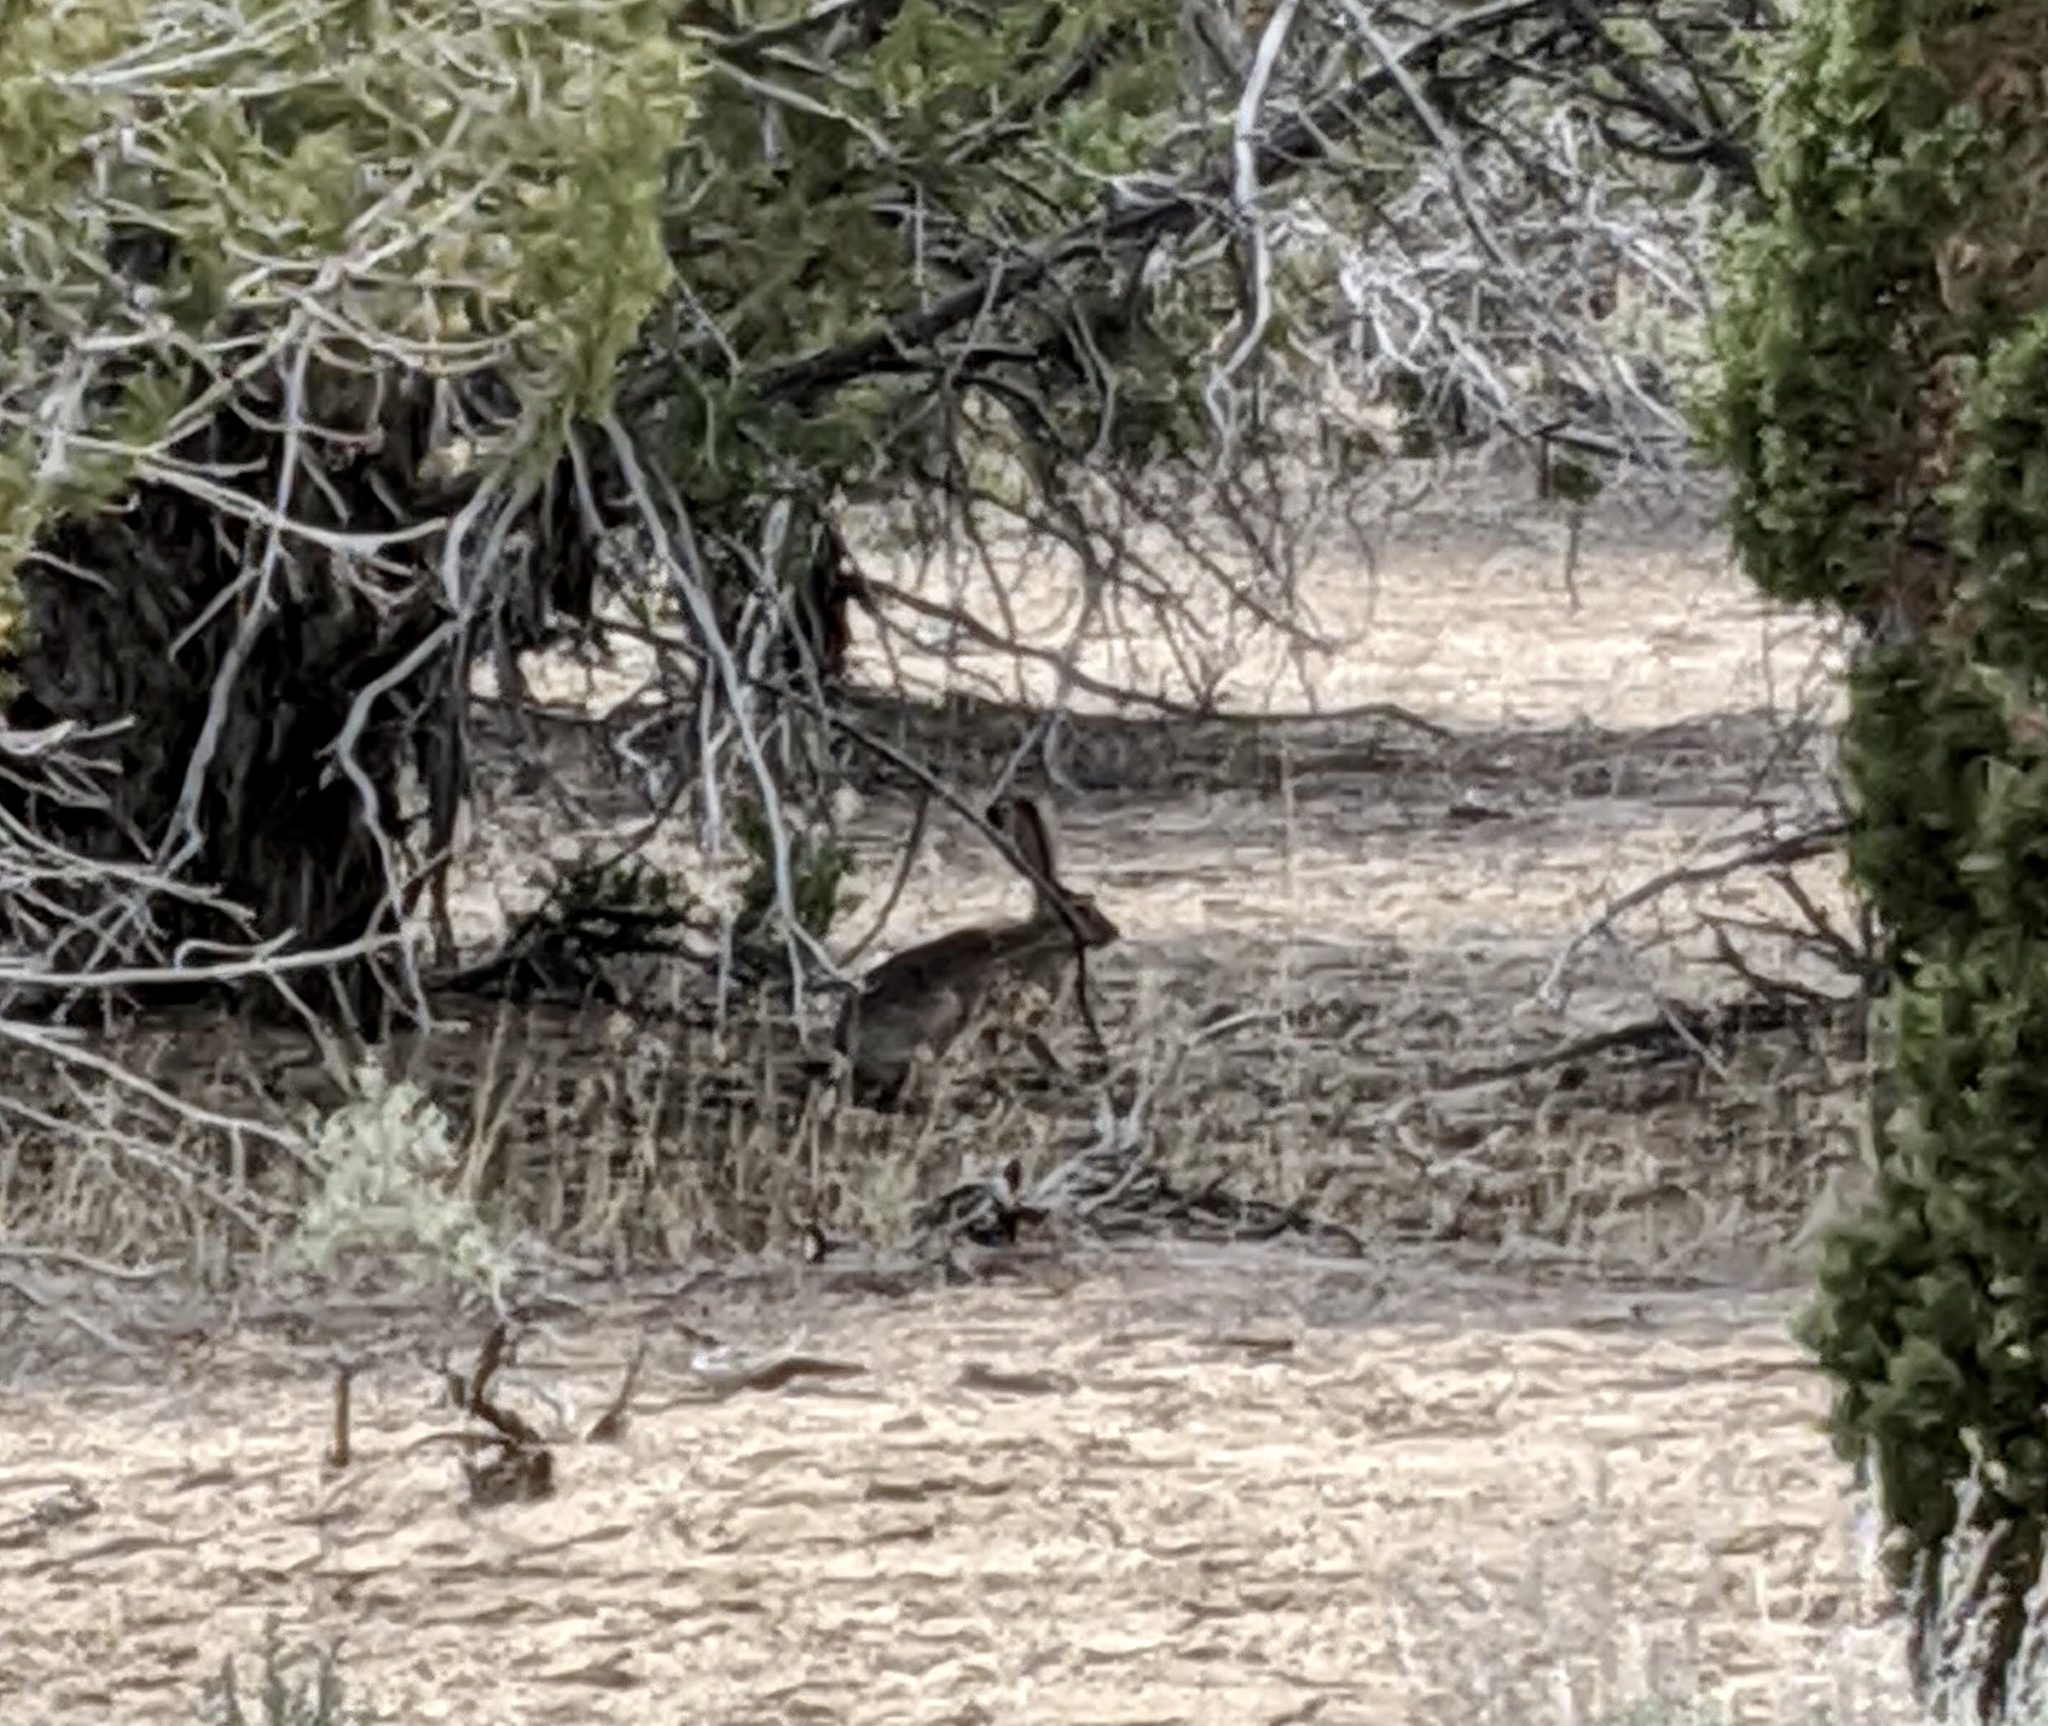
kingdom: Animalia
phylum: Chordata
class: Mammalia
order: Lagomorpha
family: Leporidae
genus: Lepus
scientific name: Lepus californicus
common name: Black-tailed jackrabbit
